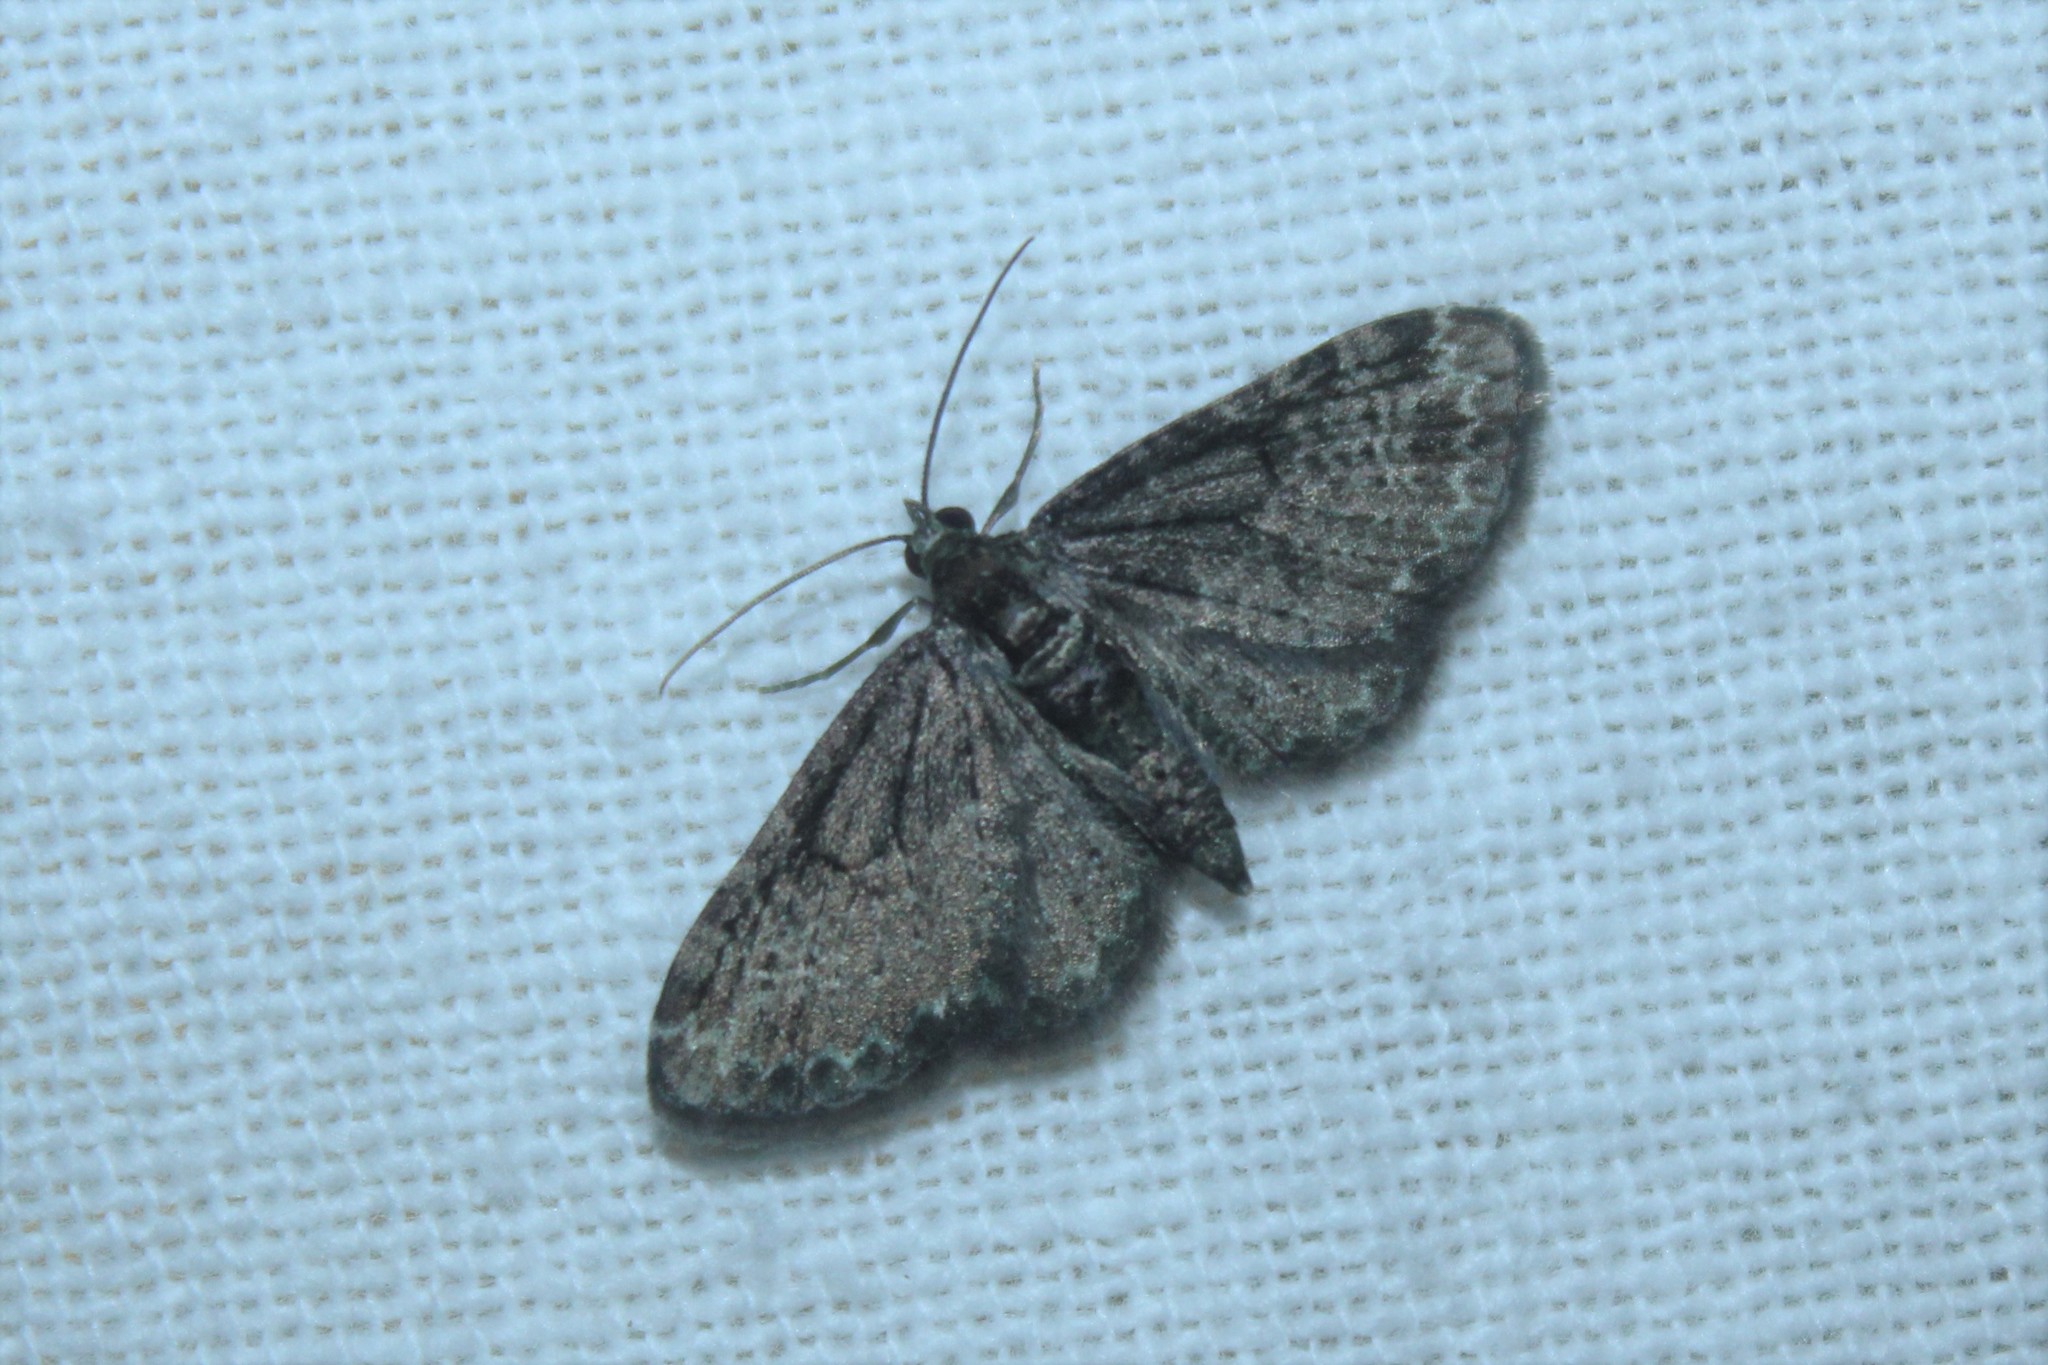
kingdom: Animalia
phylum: Arthropoda
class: Insecta
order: Lepidoptera
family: Geometridae
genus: Pasiphila
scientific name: Pasiphila rectangulata
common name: Green pug
